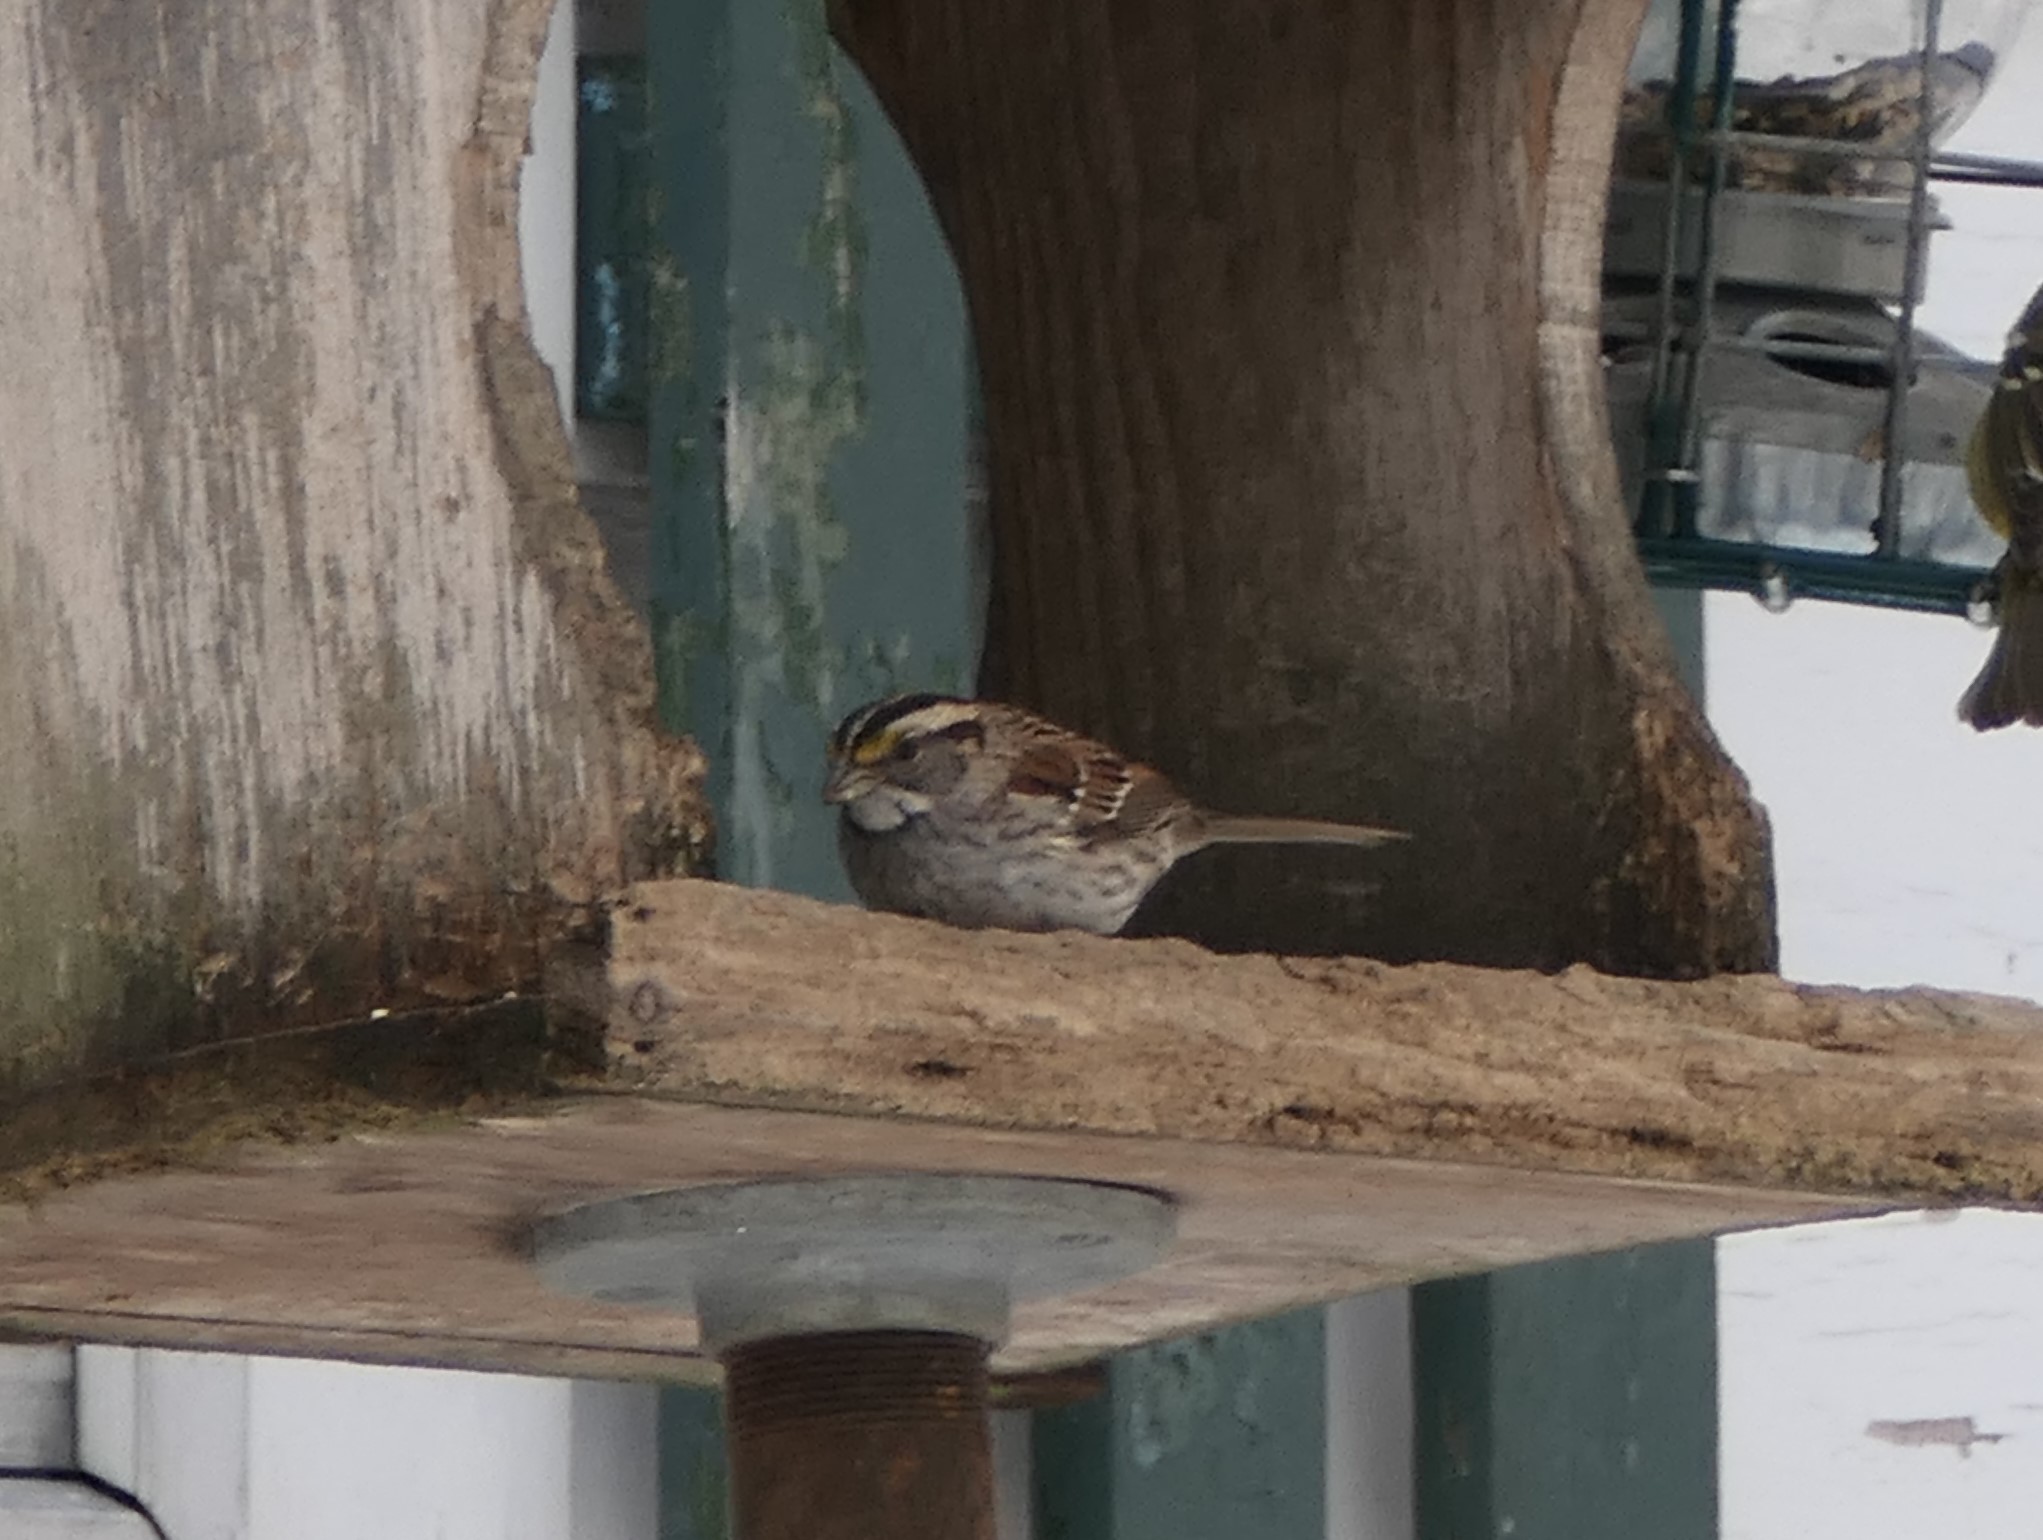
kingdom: Animalia
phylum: Chordata
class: Aves
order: Passeriformes
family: Passerellidae
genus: Zonotrichia
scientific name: Zonotrichia albicollis
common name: White-throated sparrow
